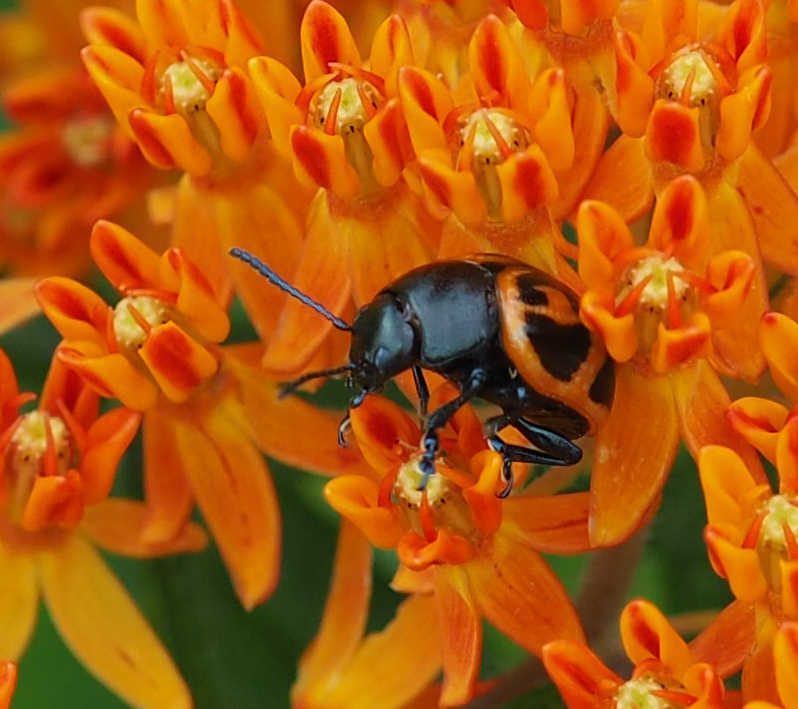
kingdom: Animalia
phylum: Arthropoda
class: Insecta
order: Coleoptera
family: Chrysomelidae
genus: Labidomera
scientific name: Labidomera clivicollis
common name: Swamp milkweed leaf beetle
